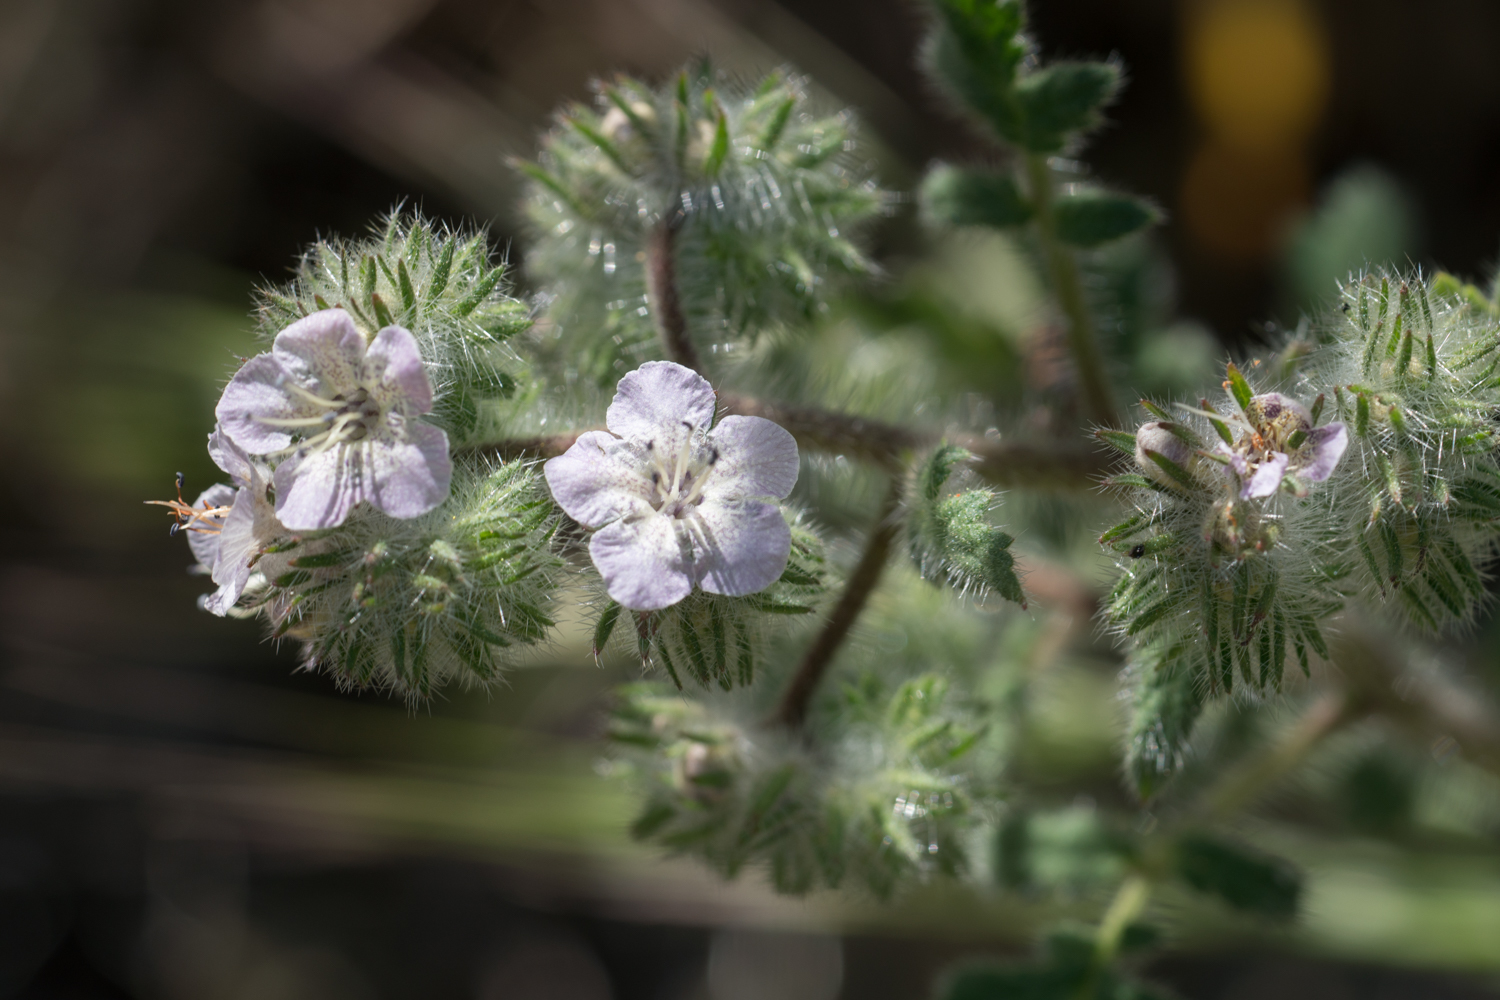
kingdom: Plantae
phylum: Tracheophyta
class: Magnoliopsida
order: Boraginales
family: Hydrophyllaceae
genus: Phacelia
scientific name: Phacelia cicutaria
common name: Caterpillar phacelia
